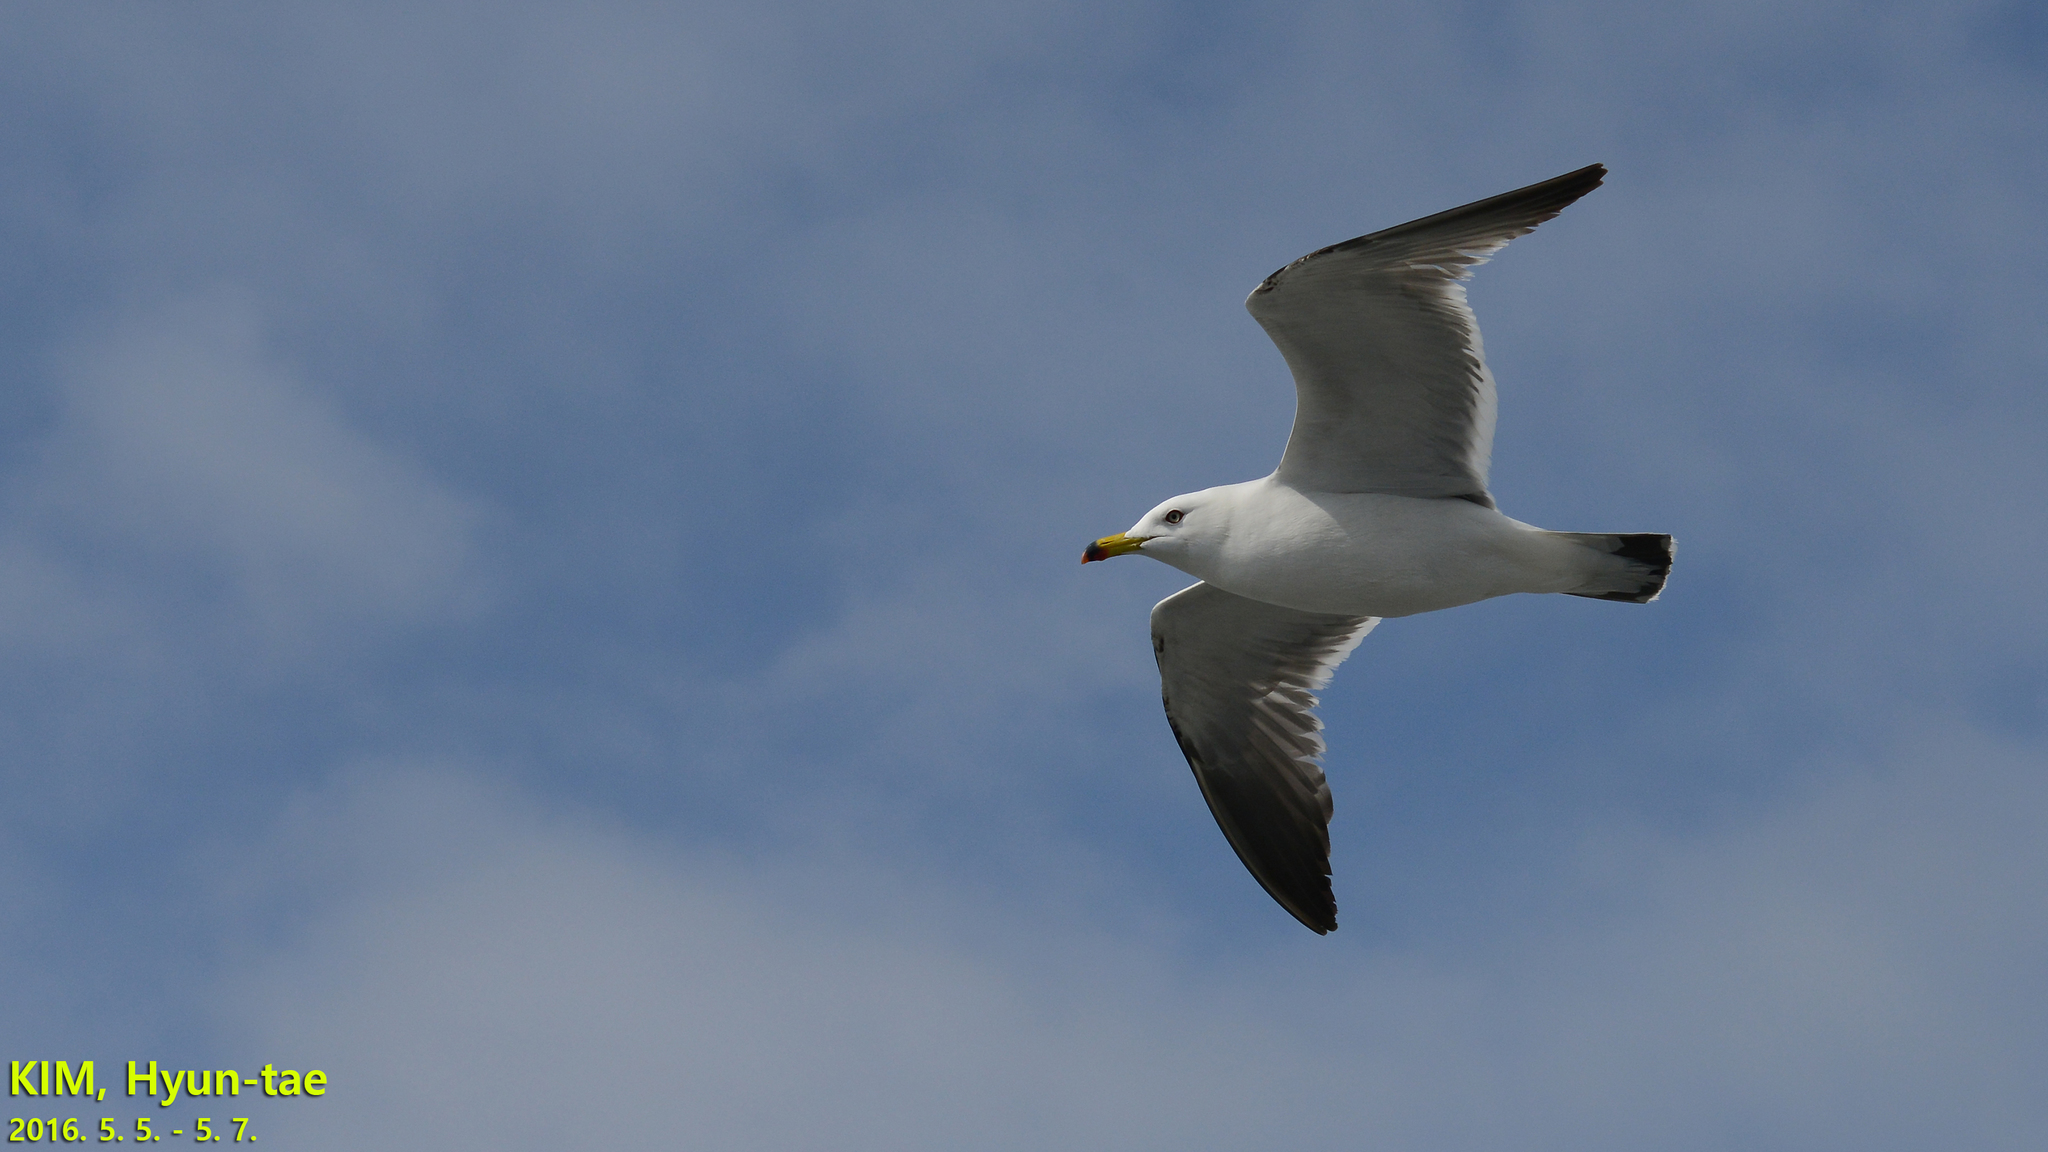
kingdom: Animalia
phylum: Chordata
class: Aves
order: Charadriiformes
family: Laridae
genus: Larus
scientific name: Larus crassirostris
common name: Black-tailed gull
